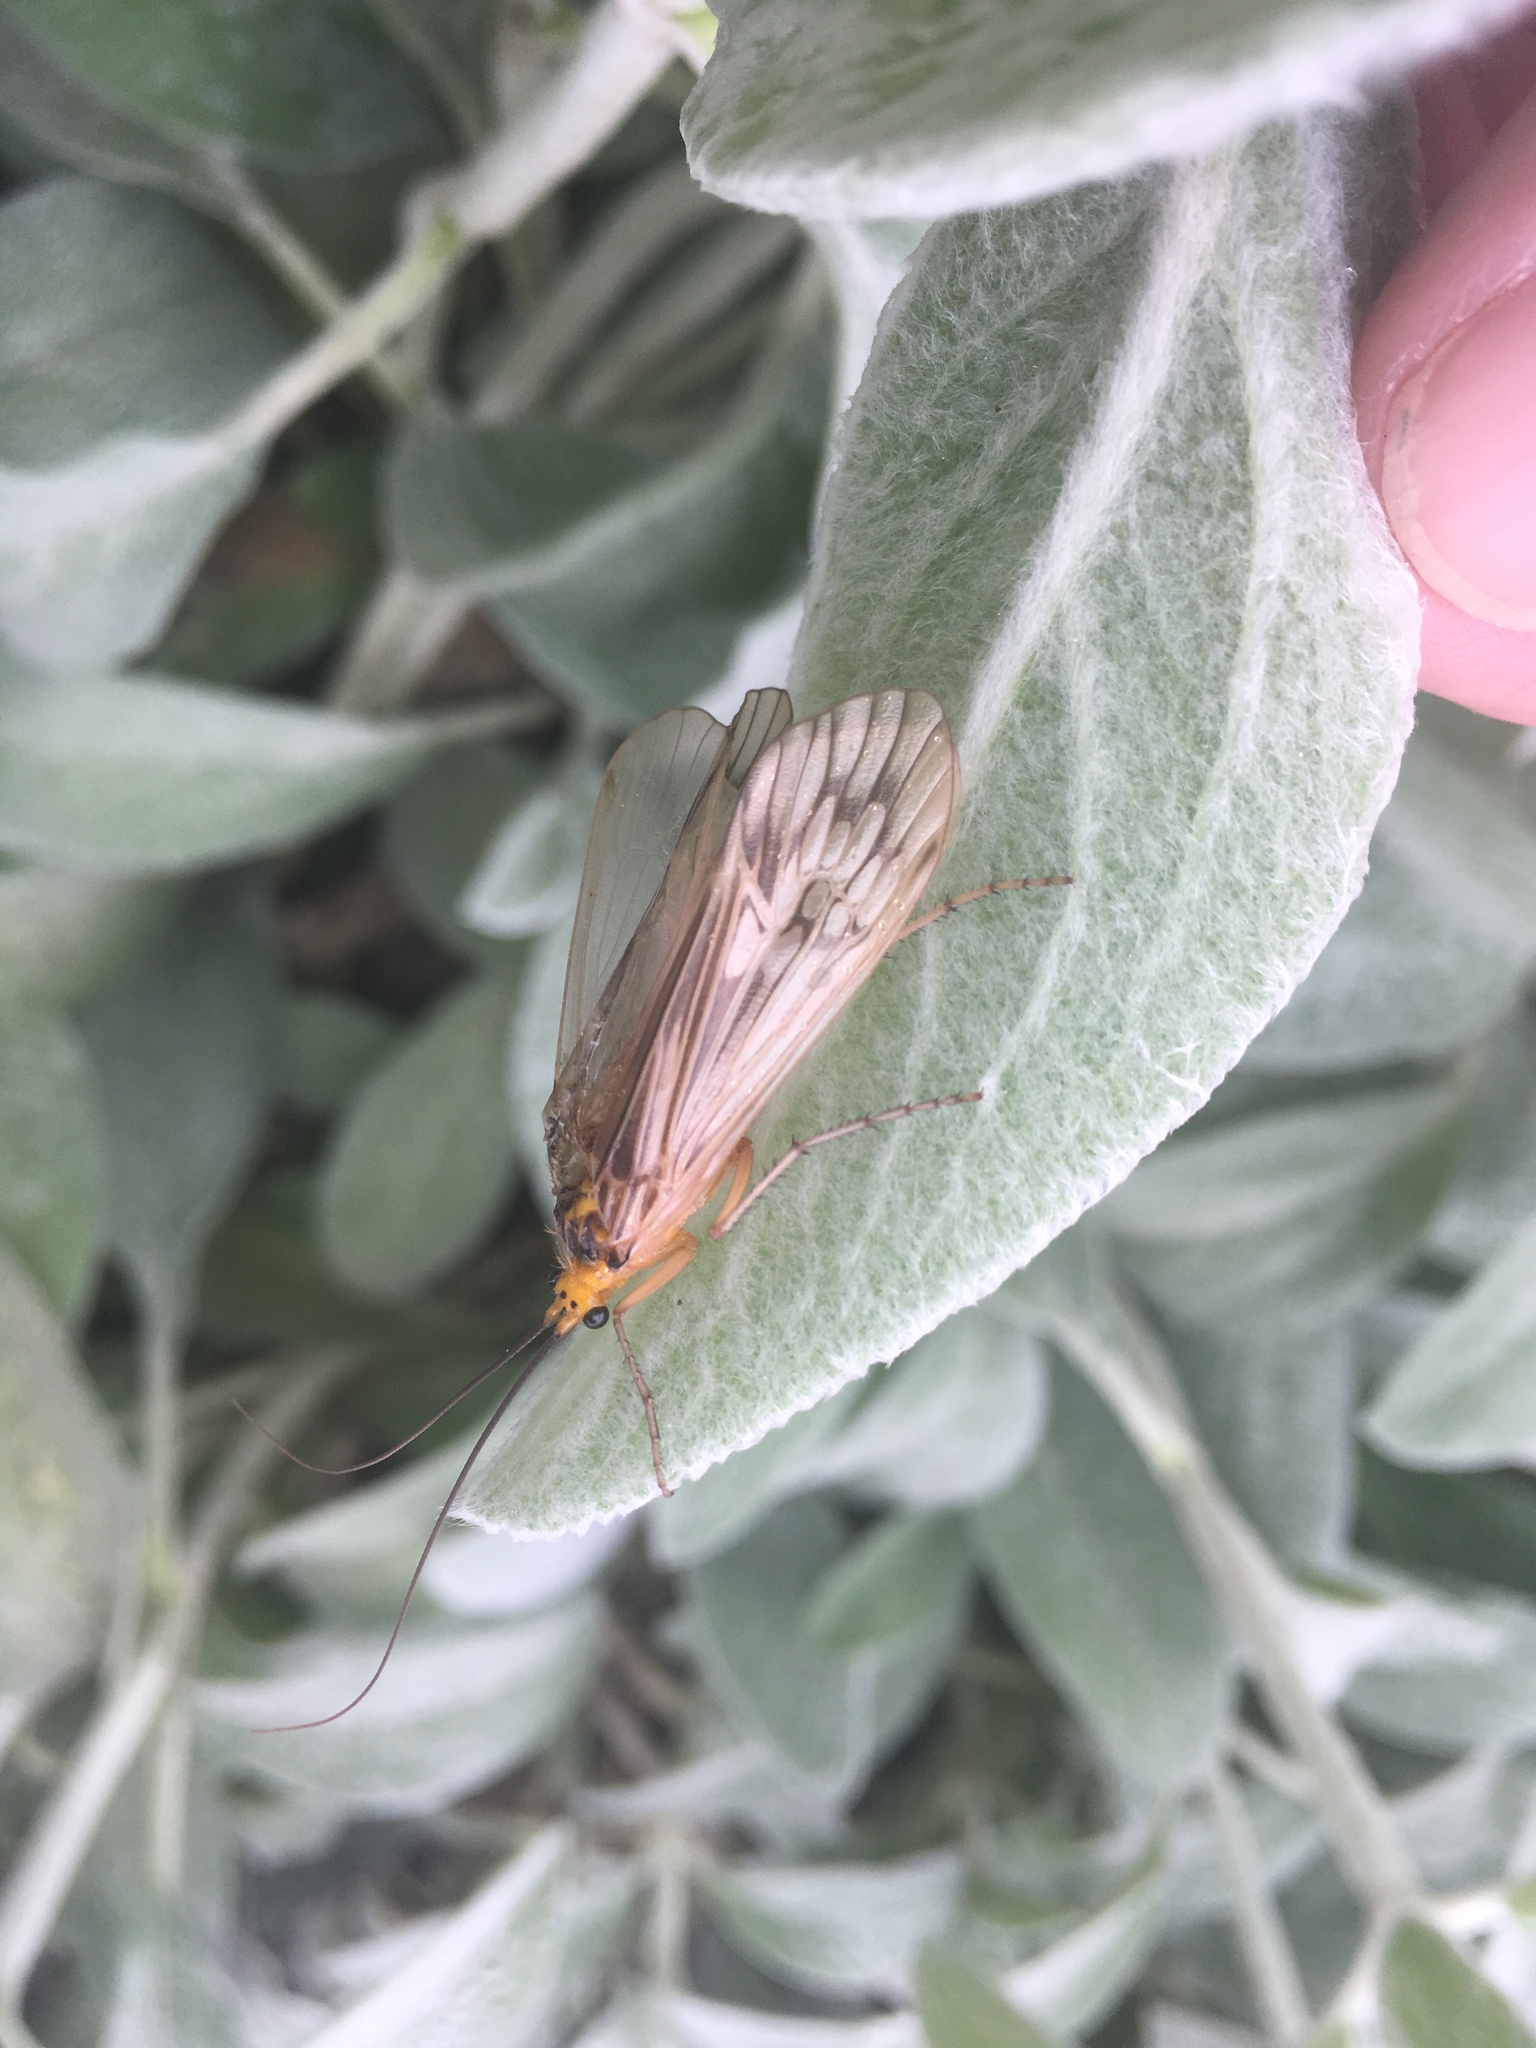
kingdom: Animalia
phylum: Arthropoda
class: Insecta
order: Trichoptera
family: Limnephilidae
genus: Hydatophylax
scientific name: Hydatophylax argus
